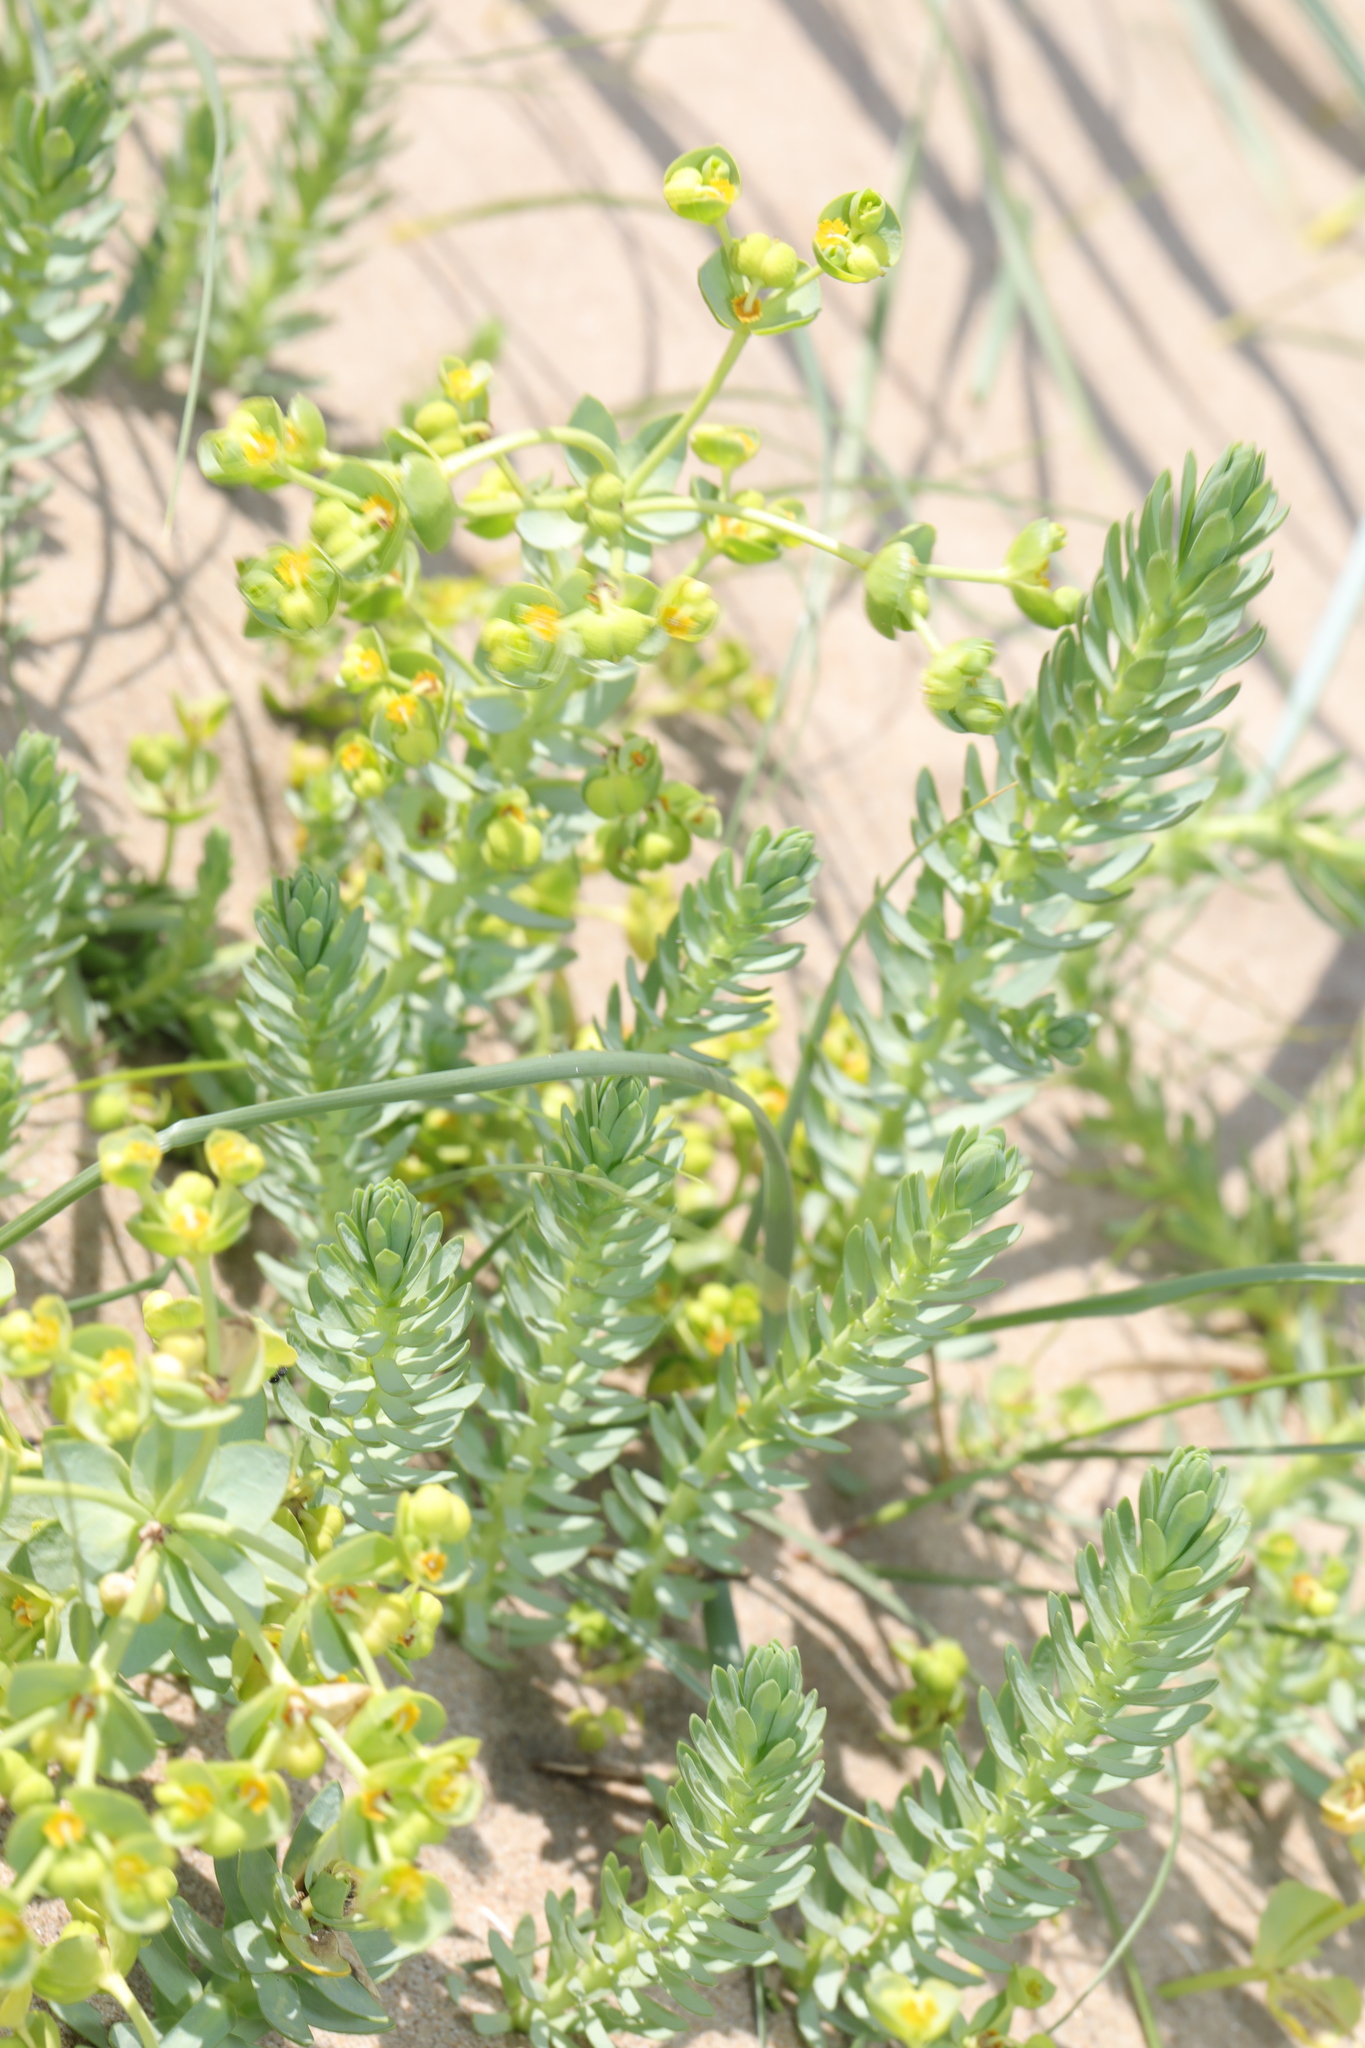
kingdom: Plantae
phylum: Tracheophyta
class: Magnoliopsida
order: Malpighiales
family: Euphorbiaceae
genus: Euphorbia
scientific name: Euphorbia paralias
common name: Sea spurge
